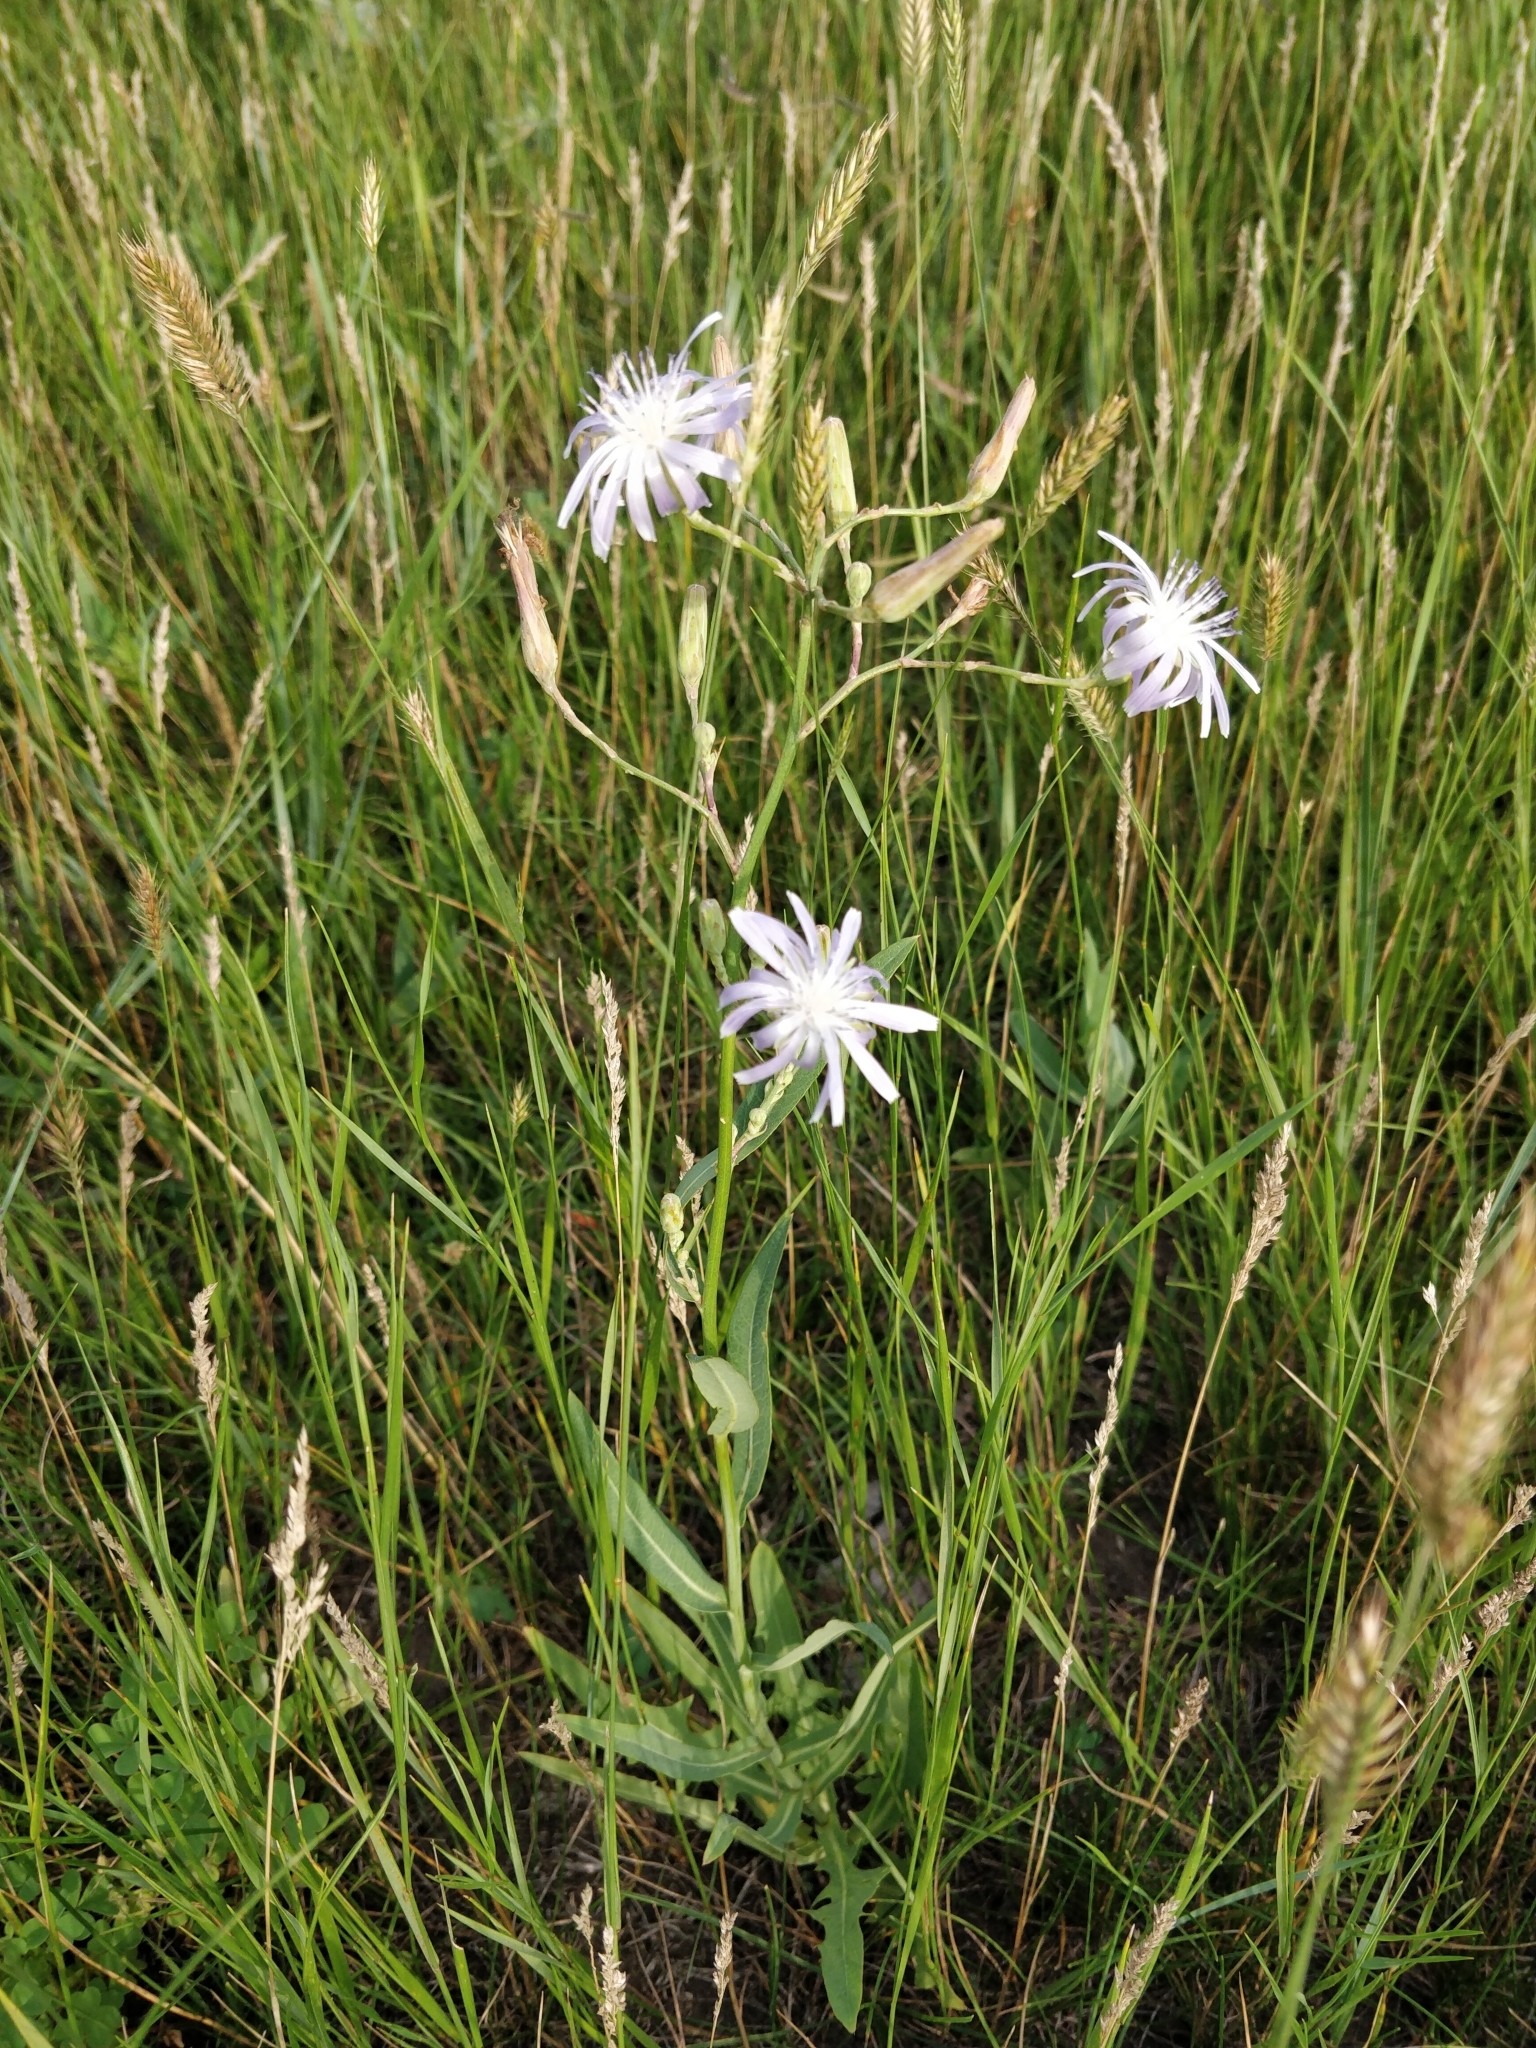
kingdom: Plantae
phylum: Tracheophyta
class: Magnoliopsida
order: Asterales
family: Asteraceae
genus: Lactuca
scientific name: Lactuca tatarica
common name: Blue lettuce
